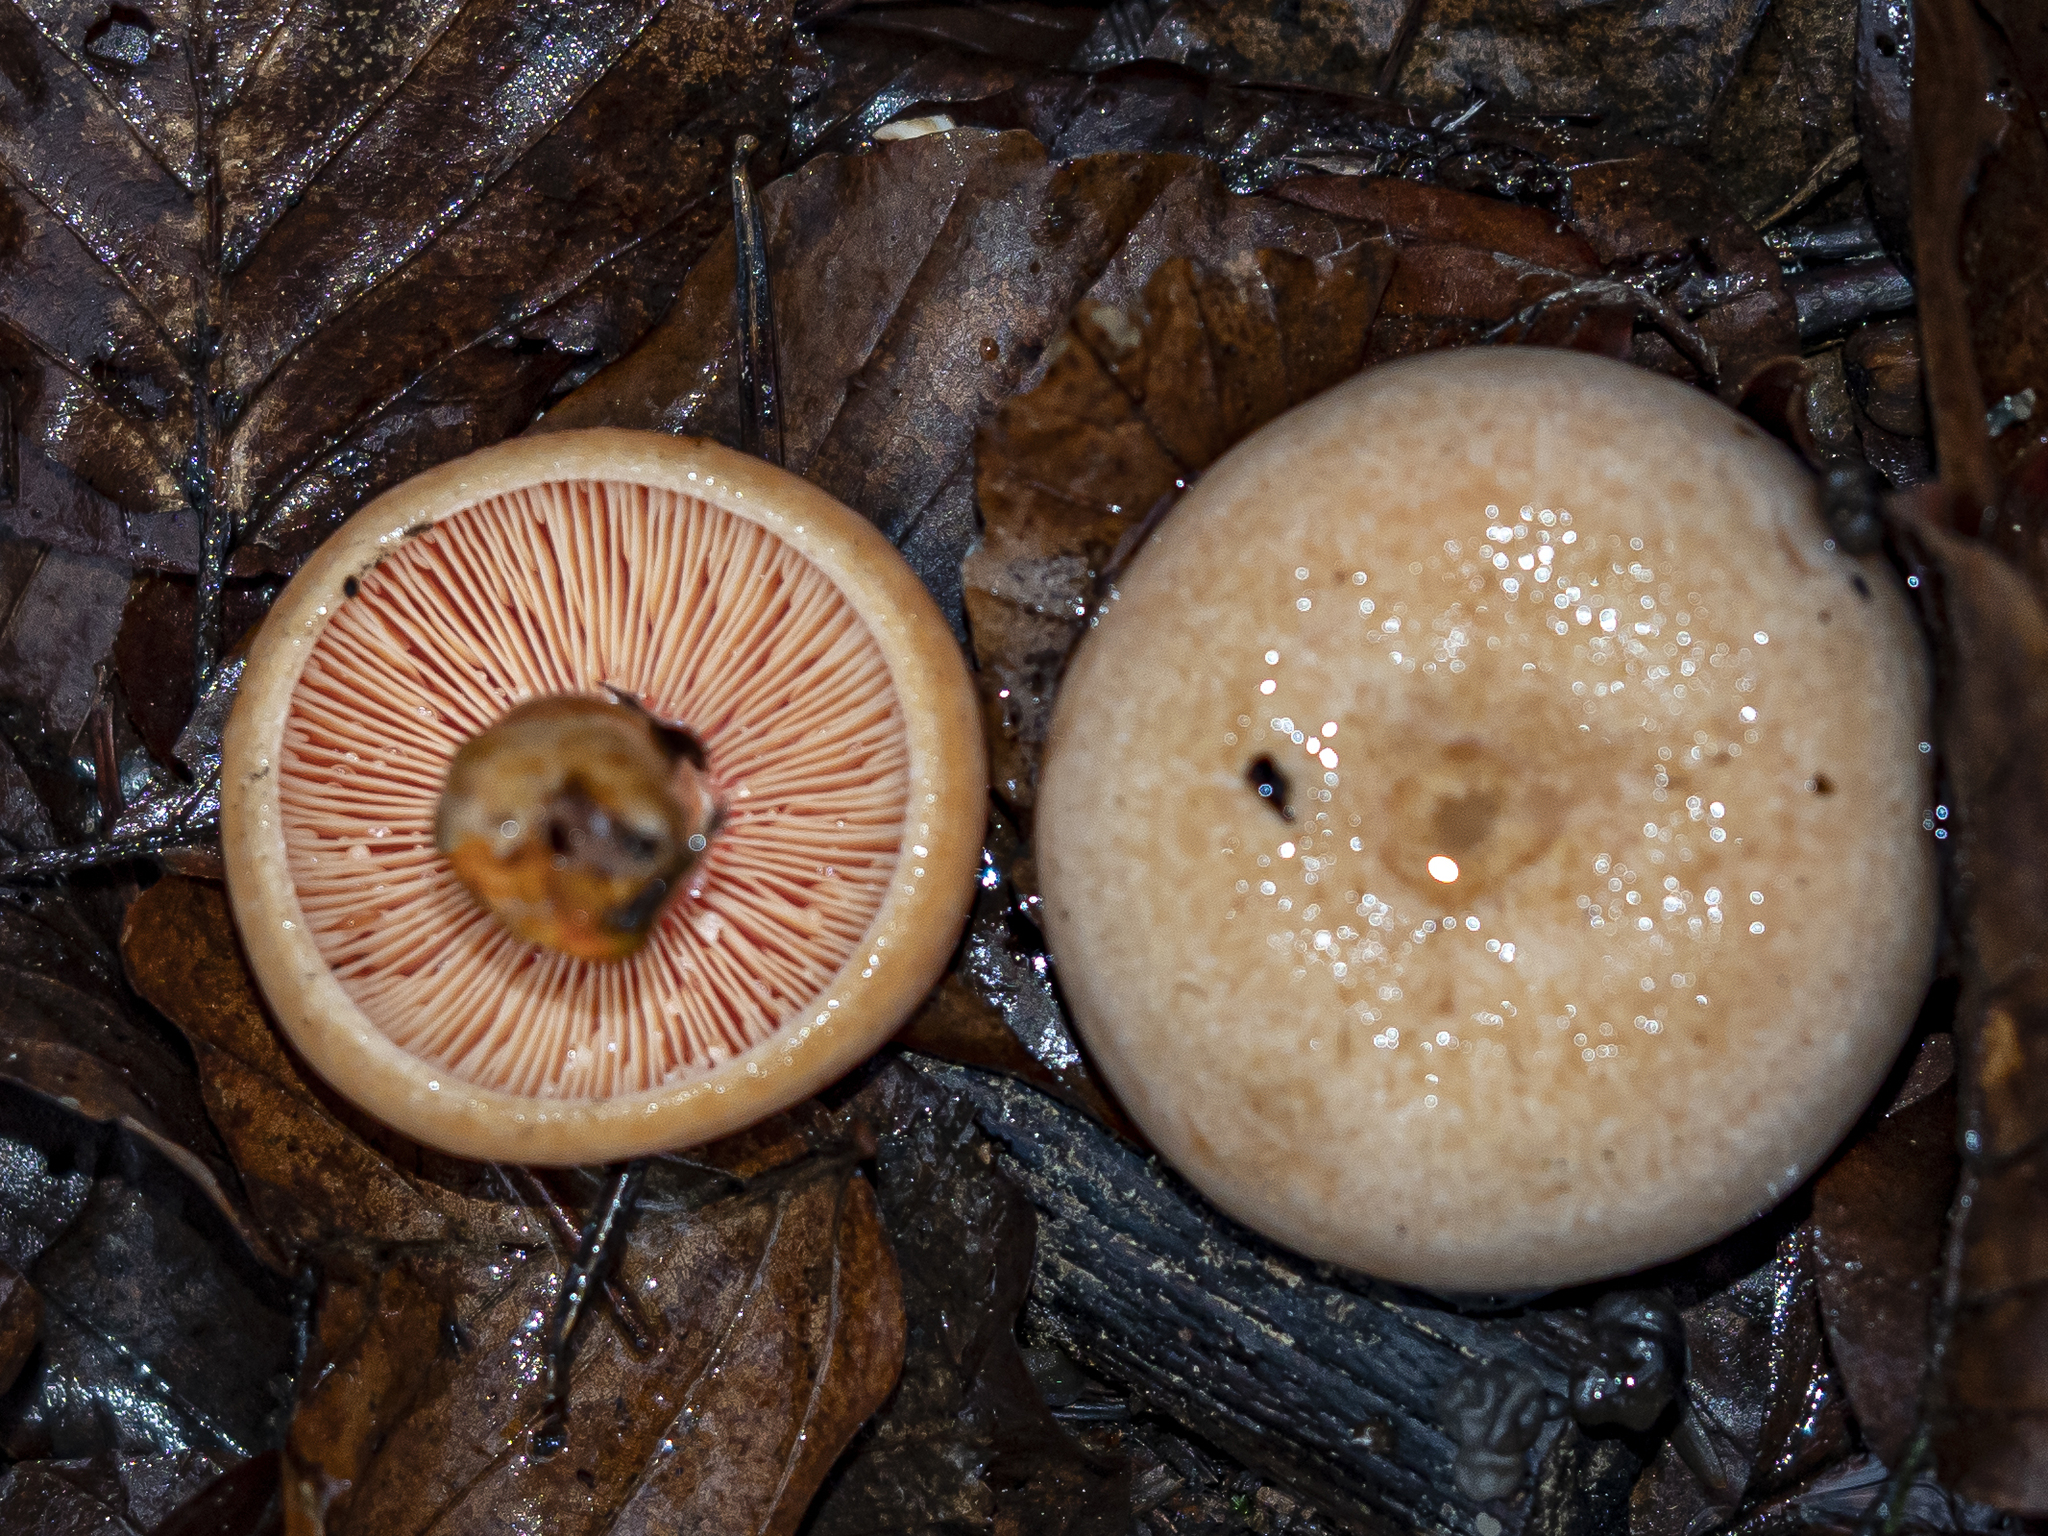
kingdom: Fungi
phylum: Basidiomycota
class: Agaricomycetes
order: Russulales
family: Russulaceae
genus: Lactarius
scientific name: Lactarius salmonicolor
